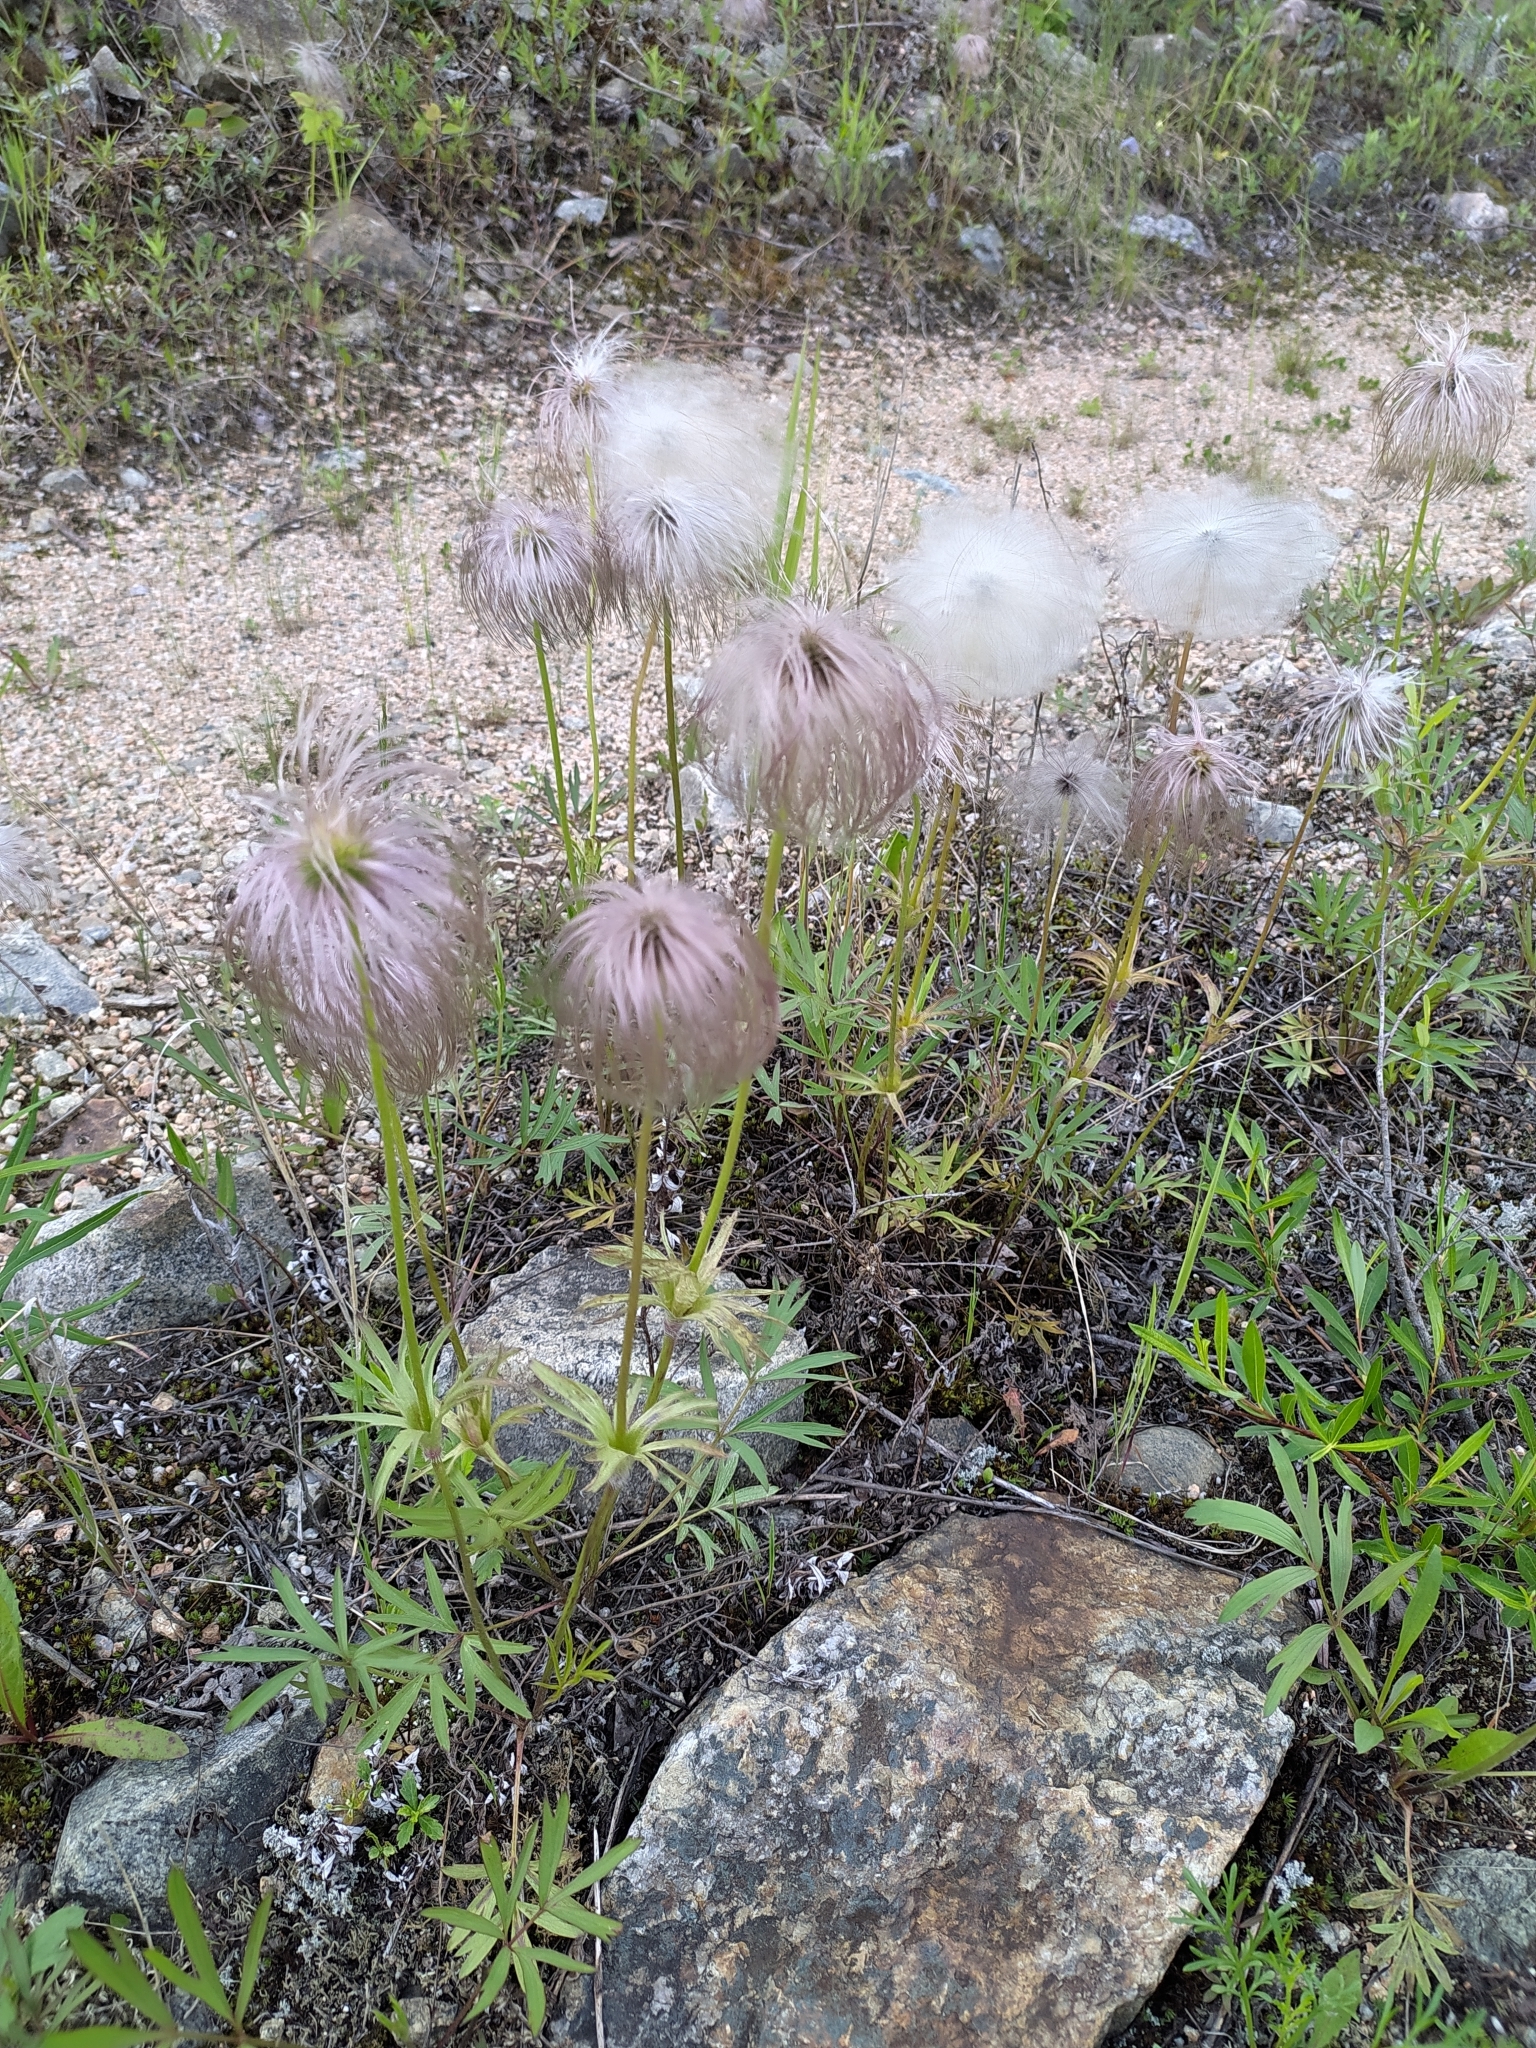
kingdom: Plantae
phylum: Tracheophyta
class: Magnoliopsida
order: Ranunculales
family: Ranunculaceae
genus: Pulsatilla
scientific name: Pulsatilla dahurica
